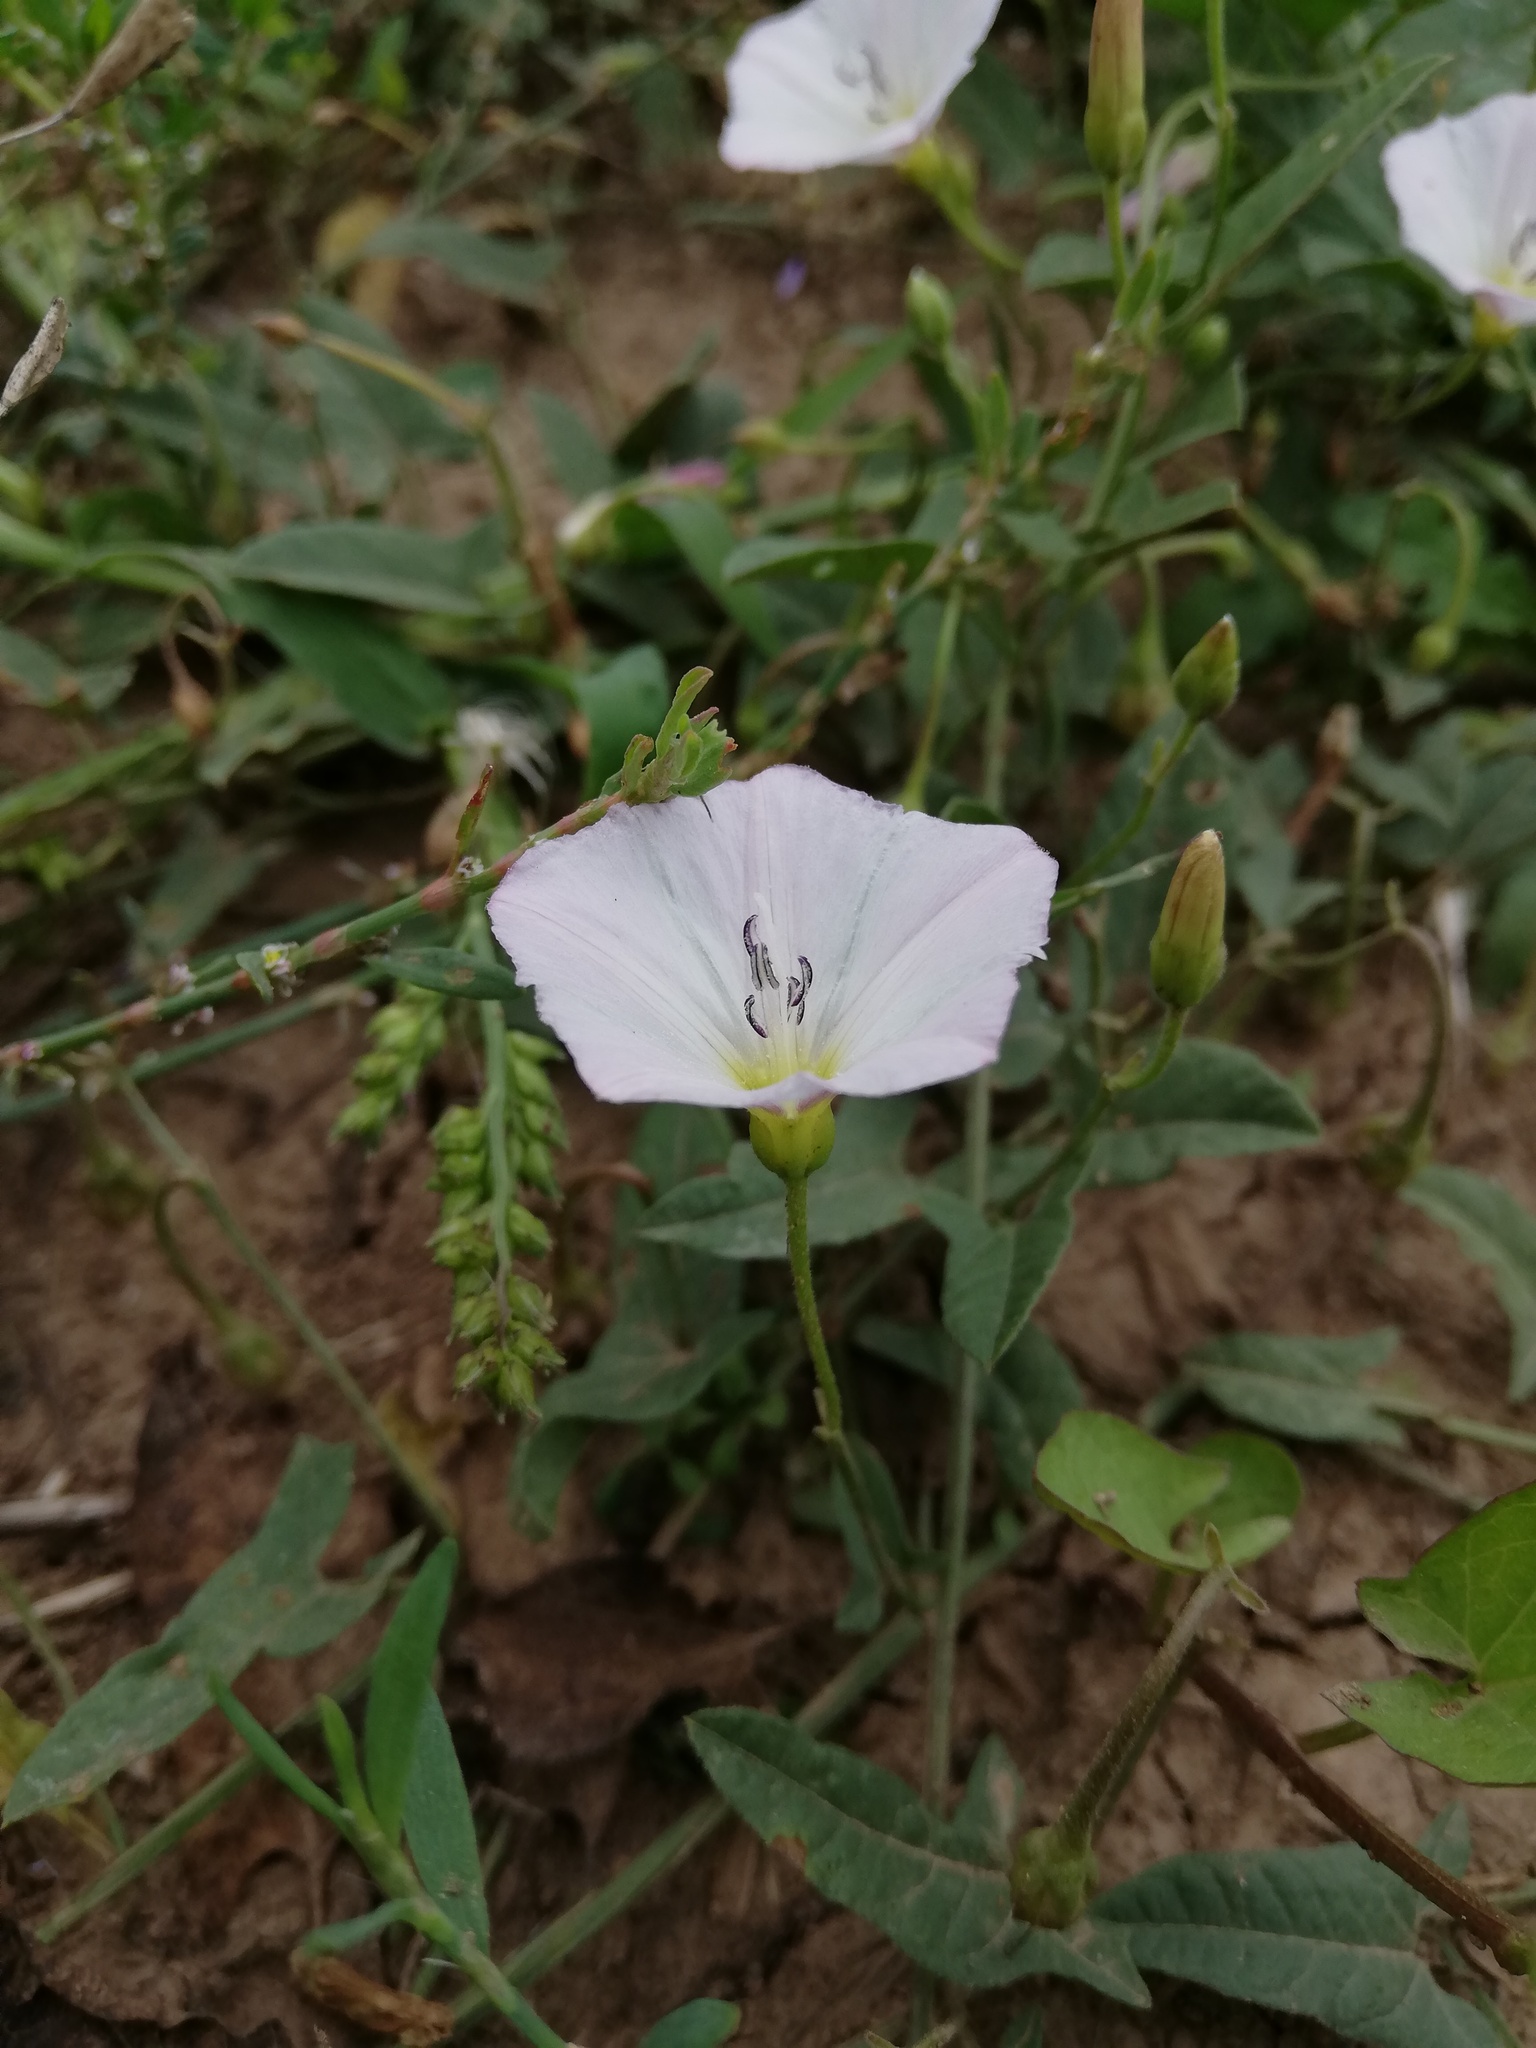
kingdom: Plantae
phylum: Tracheophyta
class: Magnoliopsida
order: Solanales
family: Convolvulaceae
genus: Convolvulus
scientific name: Convolvulus arvensis
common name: Field bindweed
